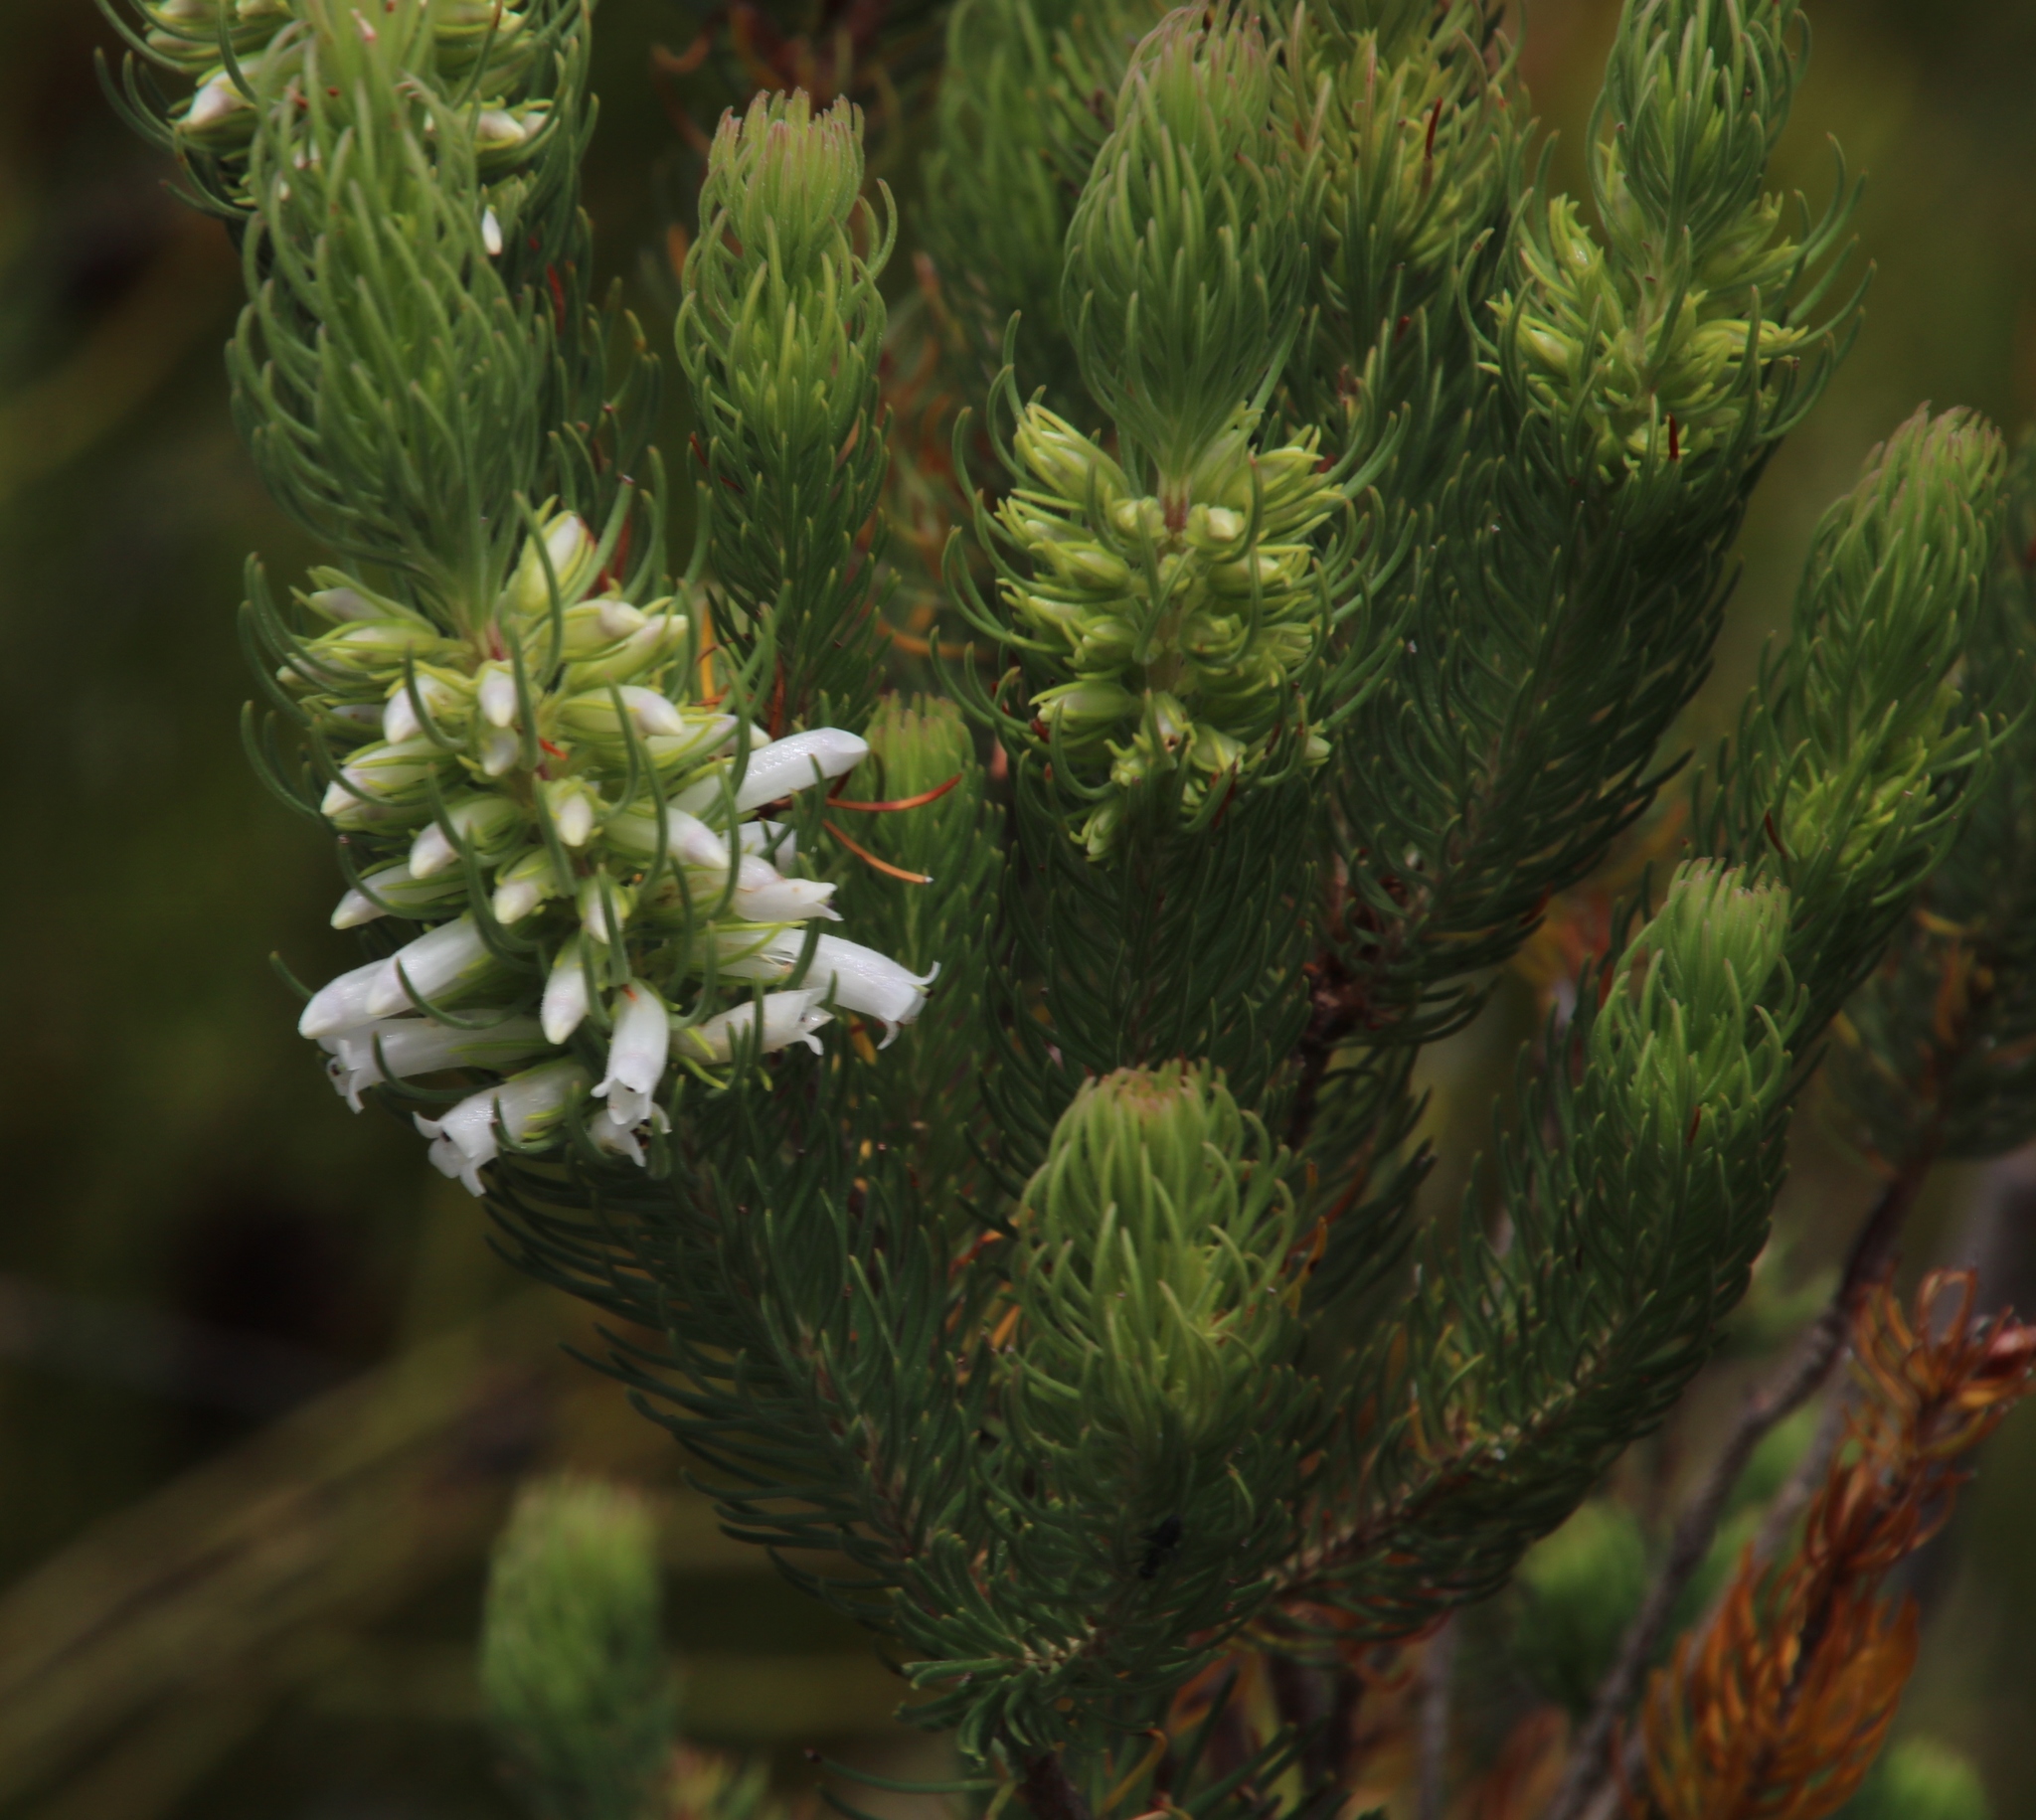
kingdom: Plantae
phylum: Tracheophyta
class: Magnoliopsida
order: Ericales
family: Ericaceae
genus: Erica
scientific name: Erica viscaria
